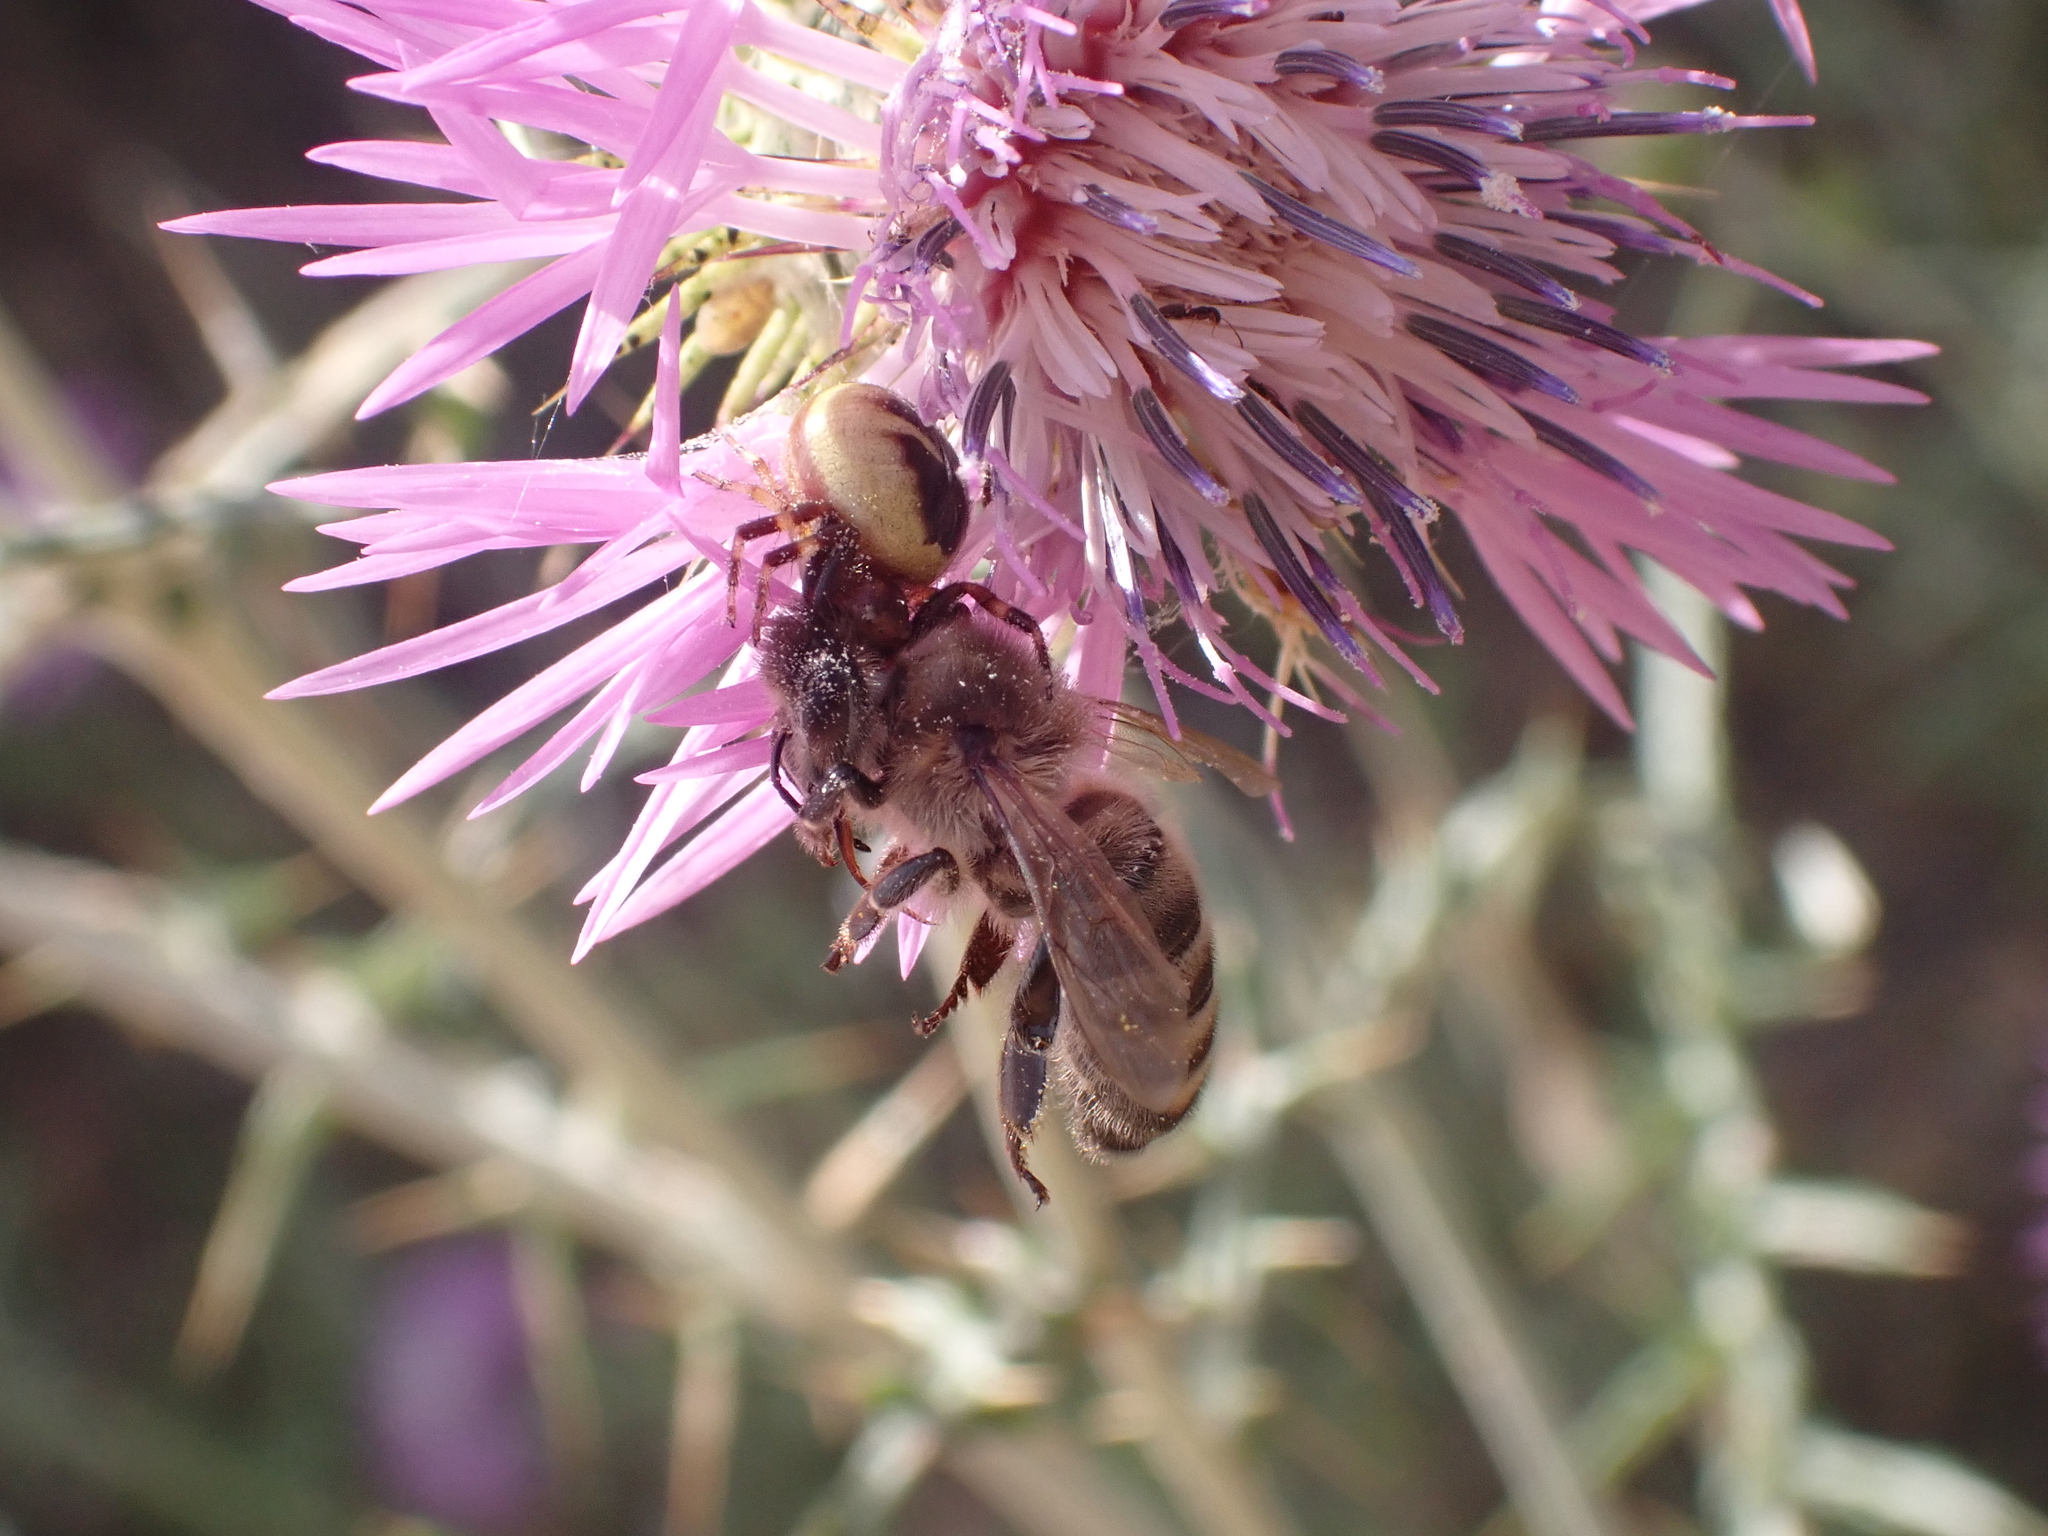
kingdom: Animalia
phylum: Arthropoda
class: Insecta
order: Hymenoptera
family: Apidae
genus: Apis
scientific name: Apis mellifera
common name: Honey bee
